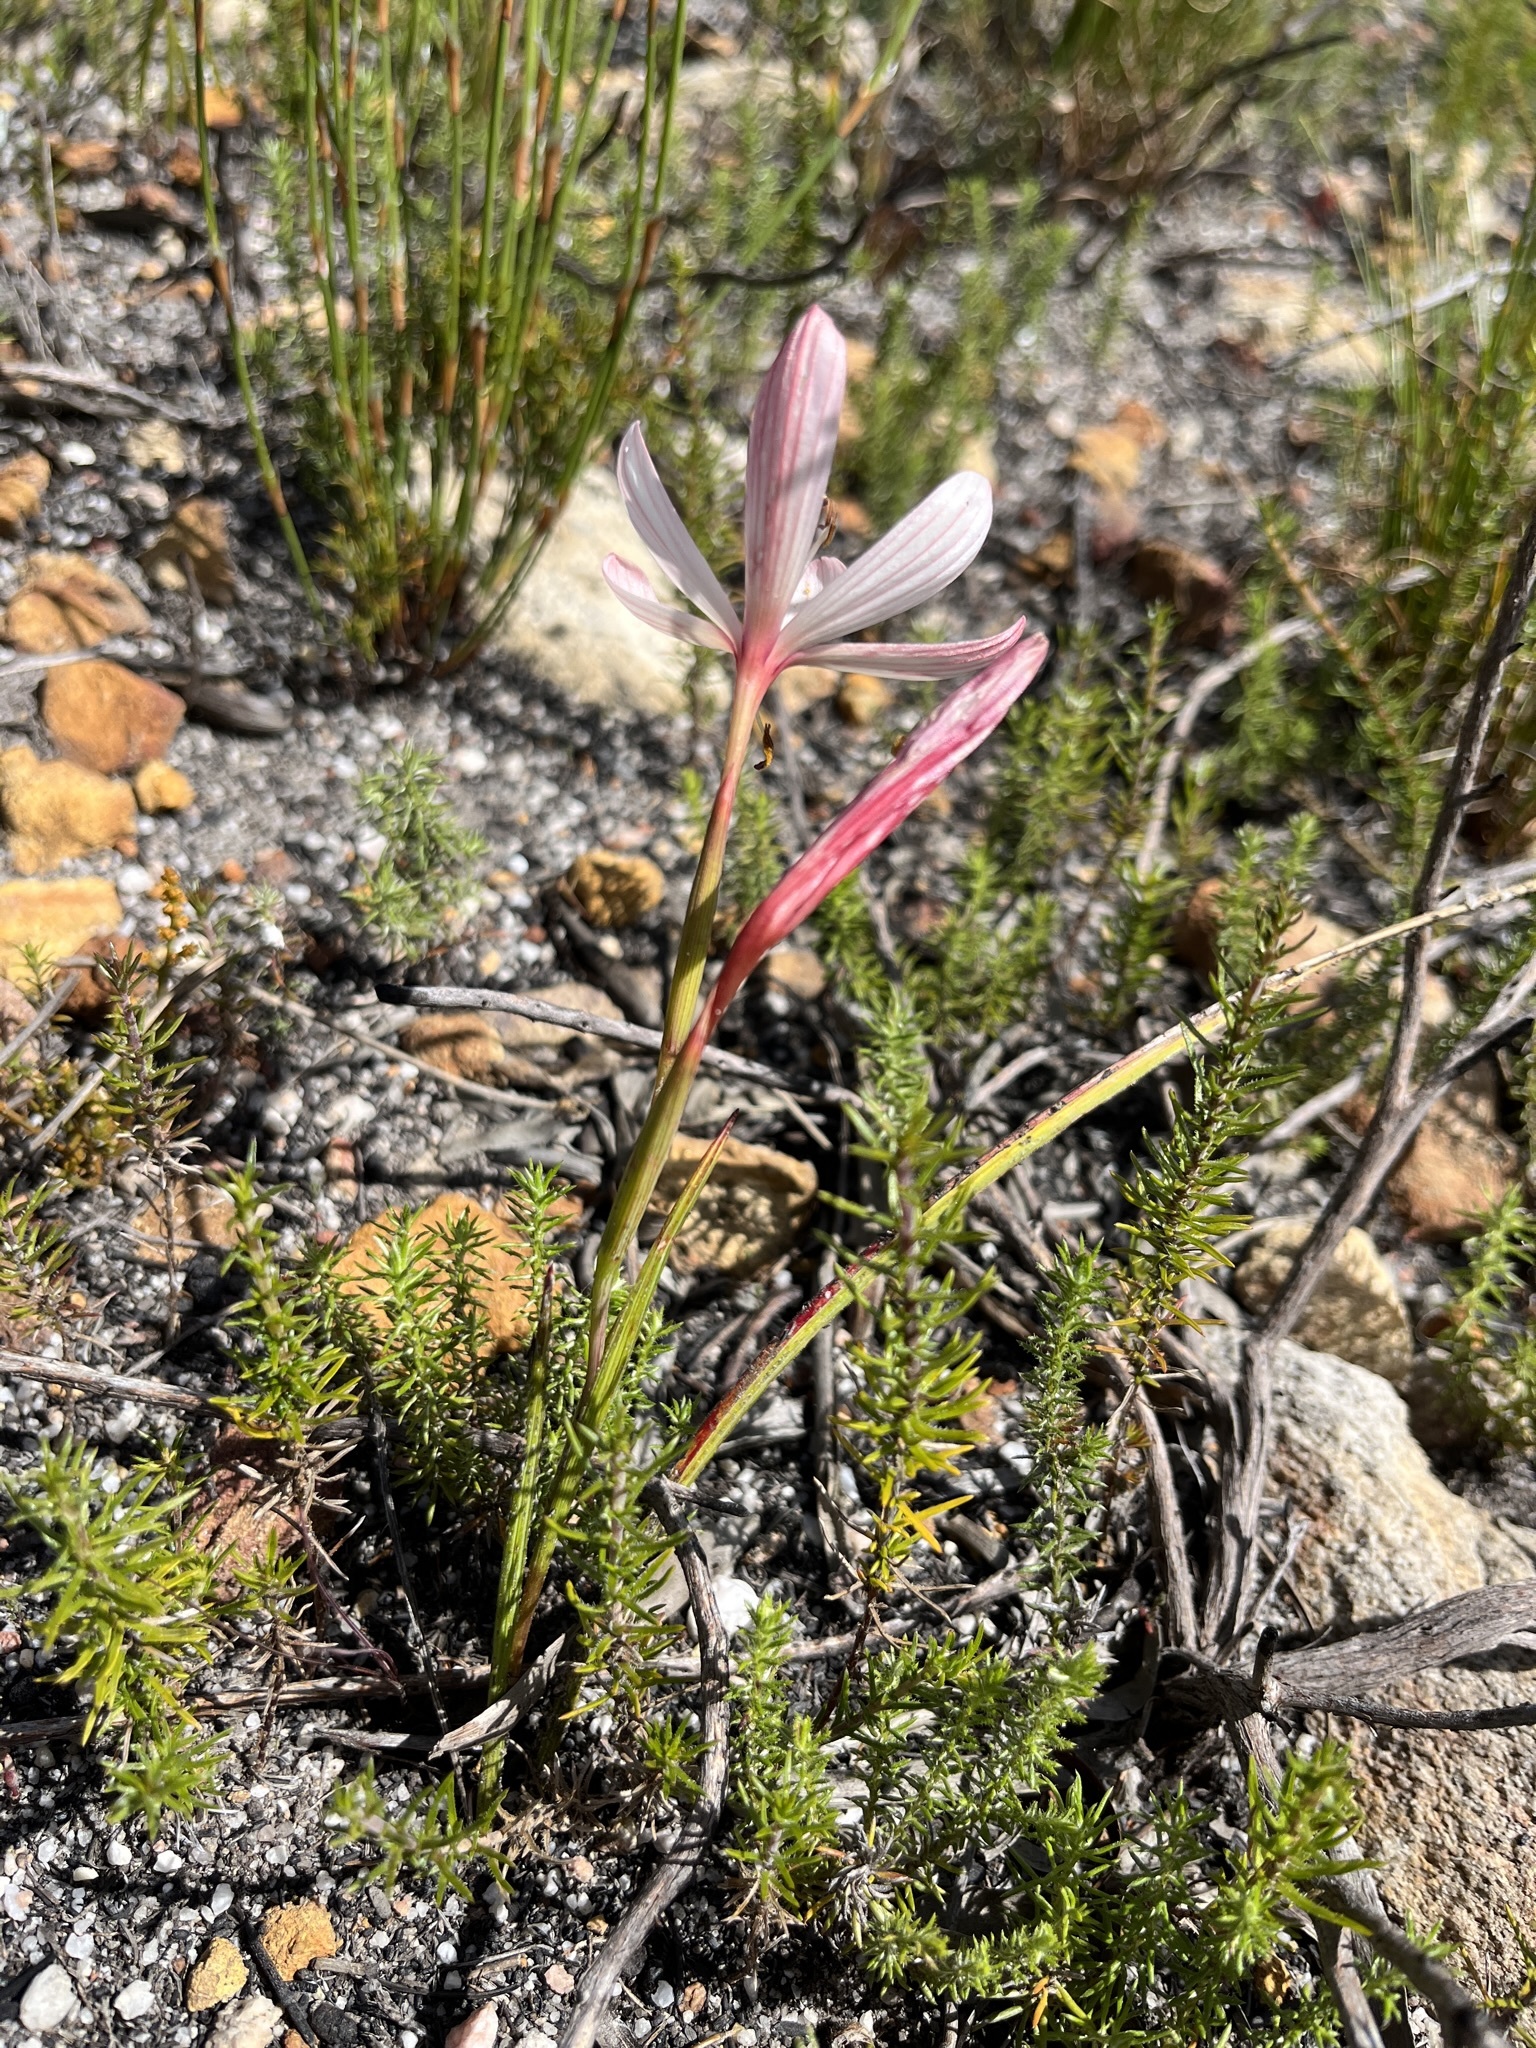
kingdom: Plantae
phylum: Tracheophyta
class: Liliopsida
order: Asparagales
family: Iridaceae
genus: Geissorhiza
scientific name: Geissorhiza schinzii
